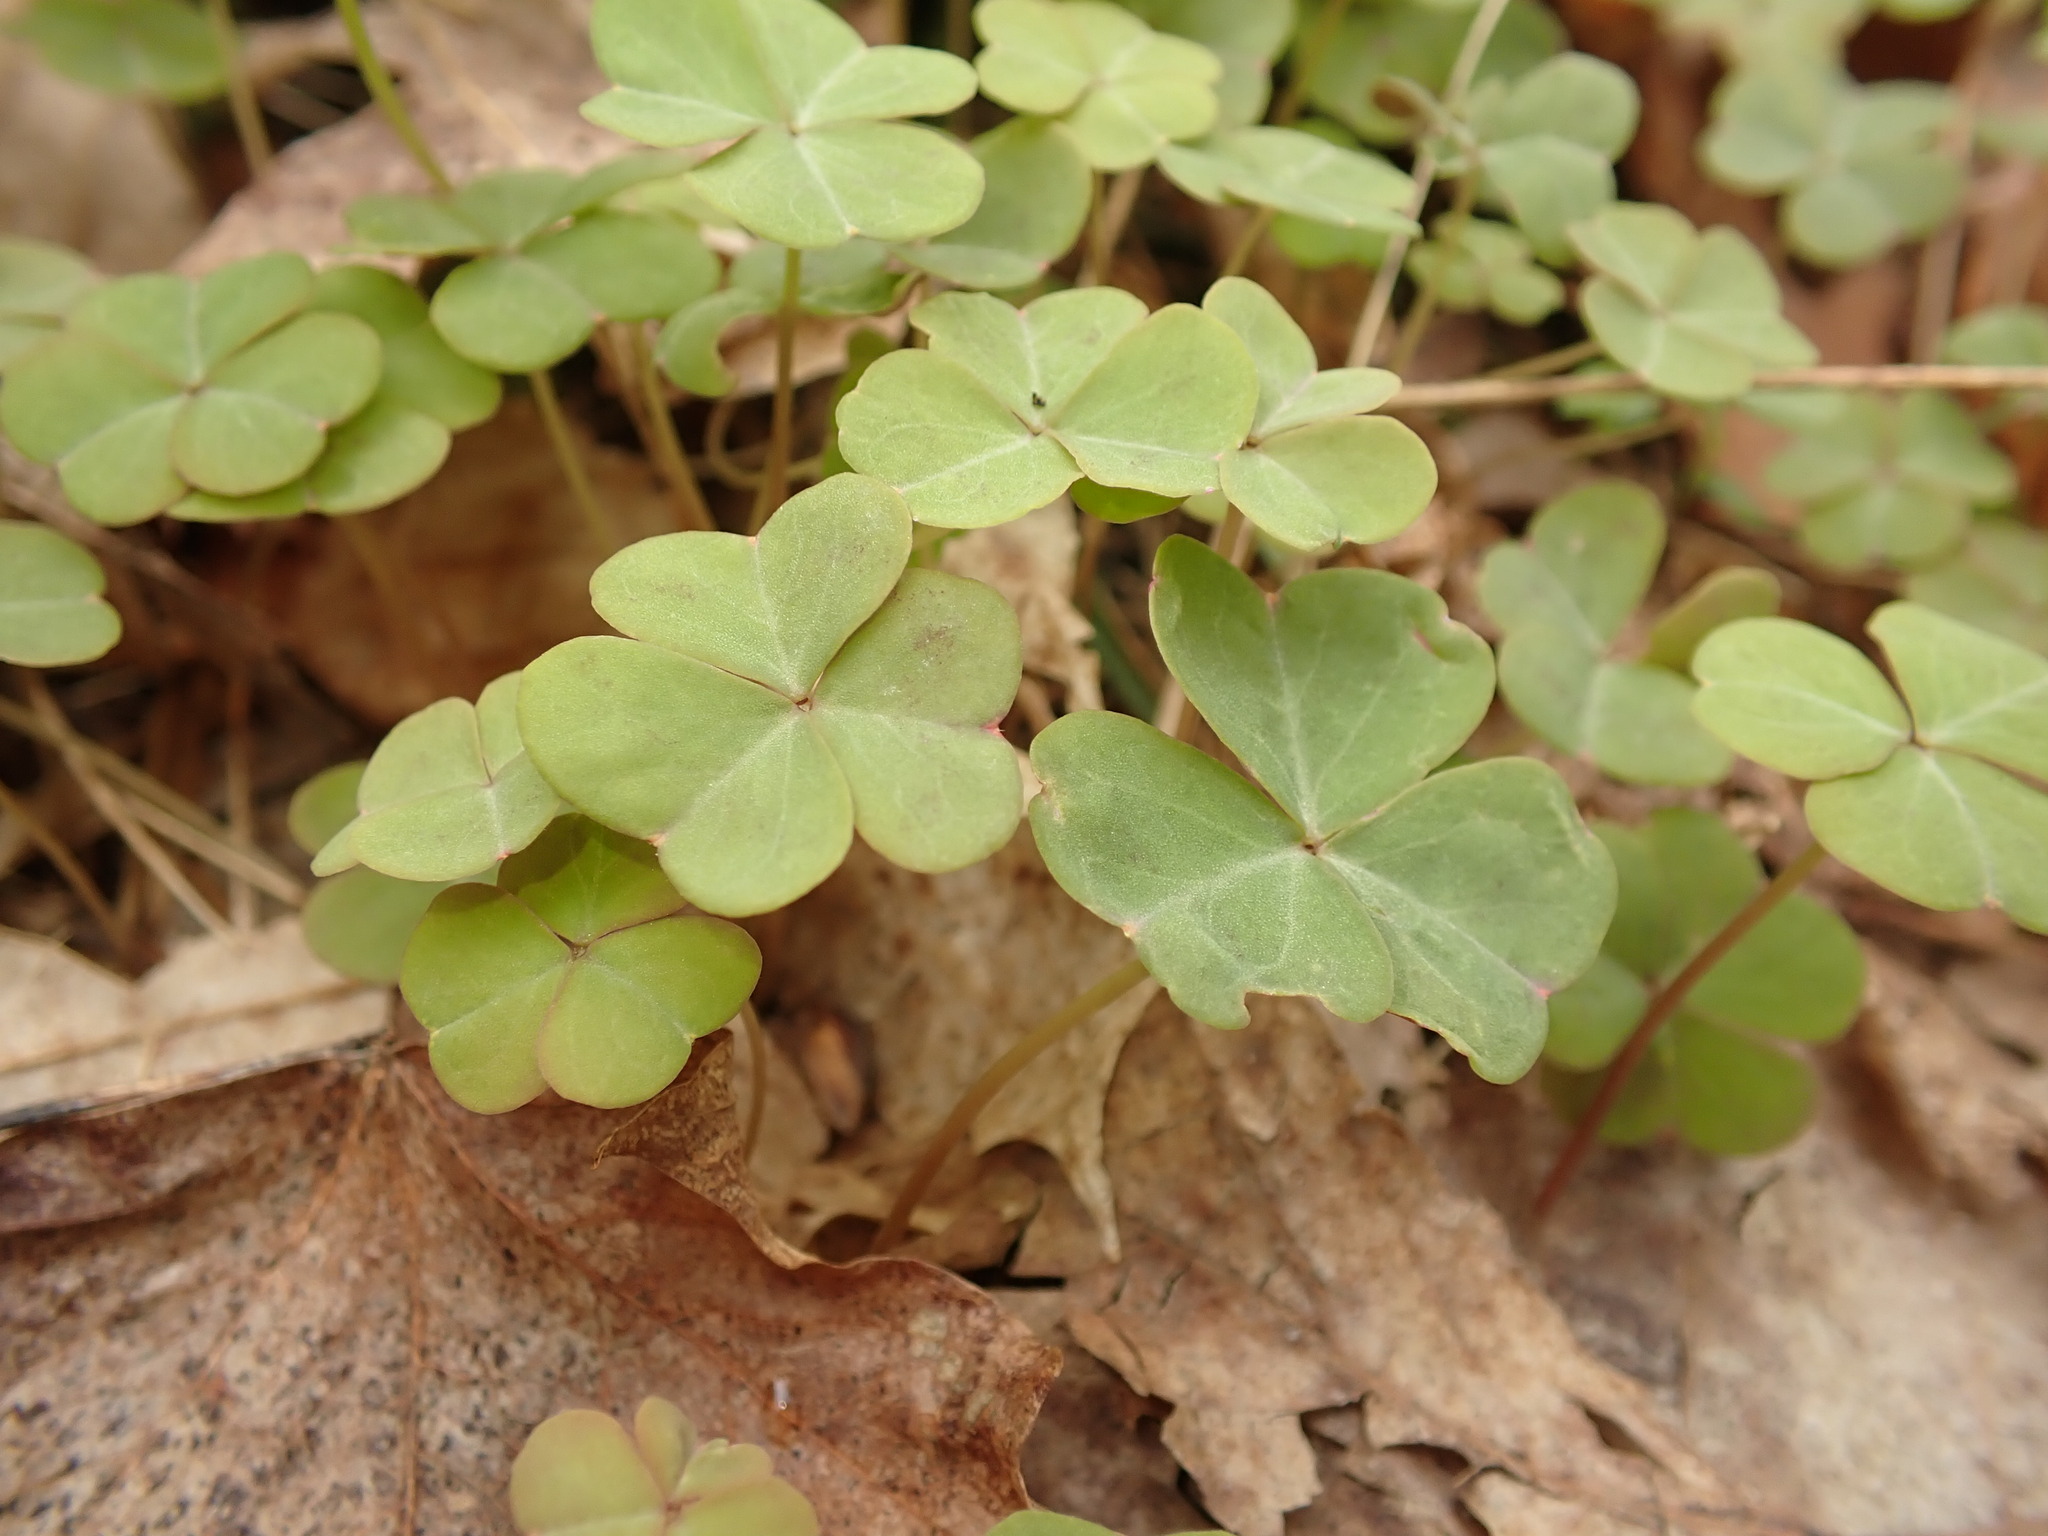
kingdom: Plantae
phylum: Tracheophyta
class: Magnoliopsida
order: Oxalidales
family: Oxalidaceae
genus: Oxalis
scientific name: Oxalis violacea
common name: Violet wood-sorrel
